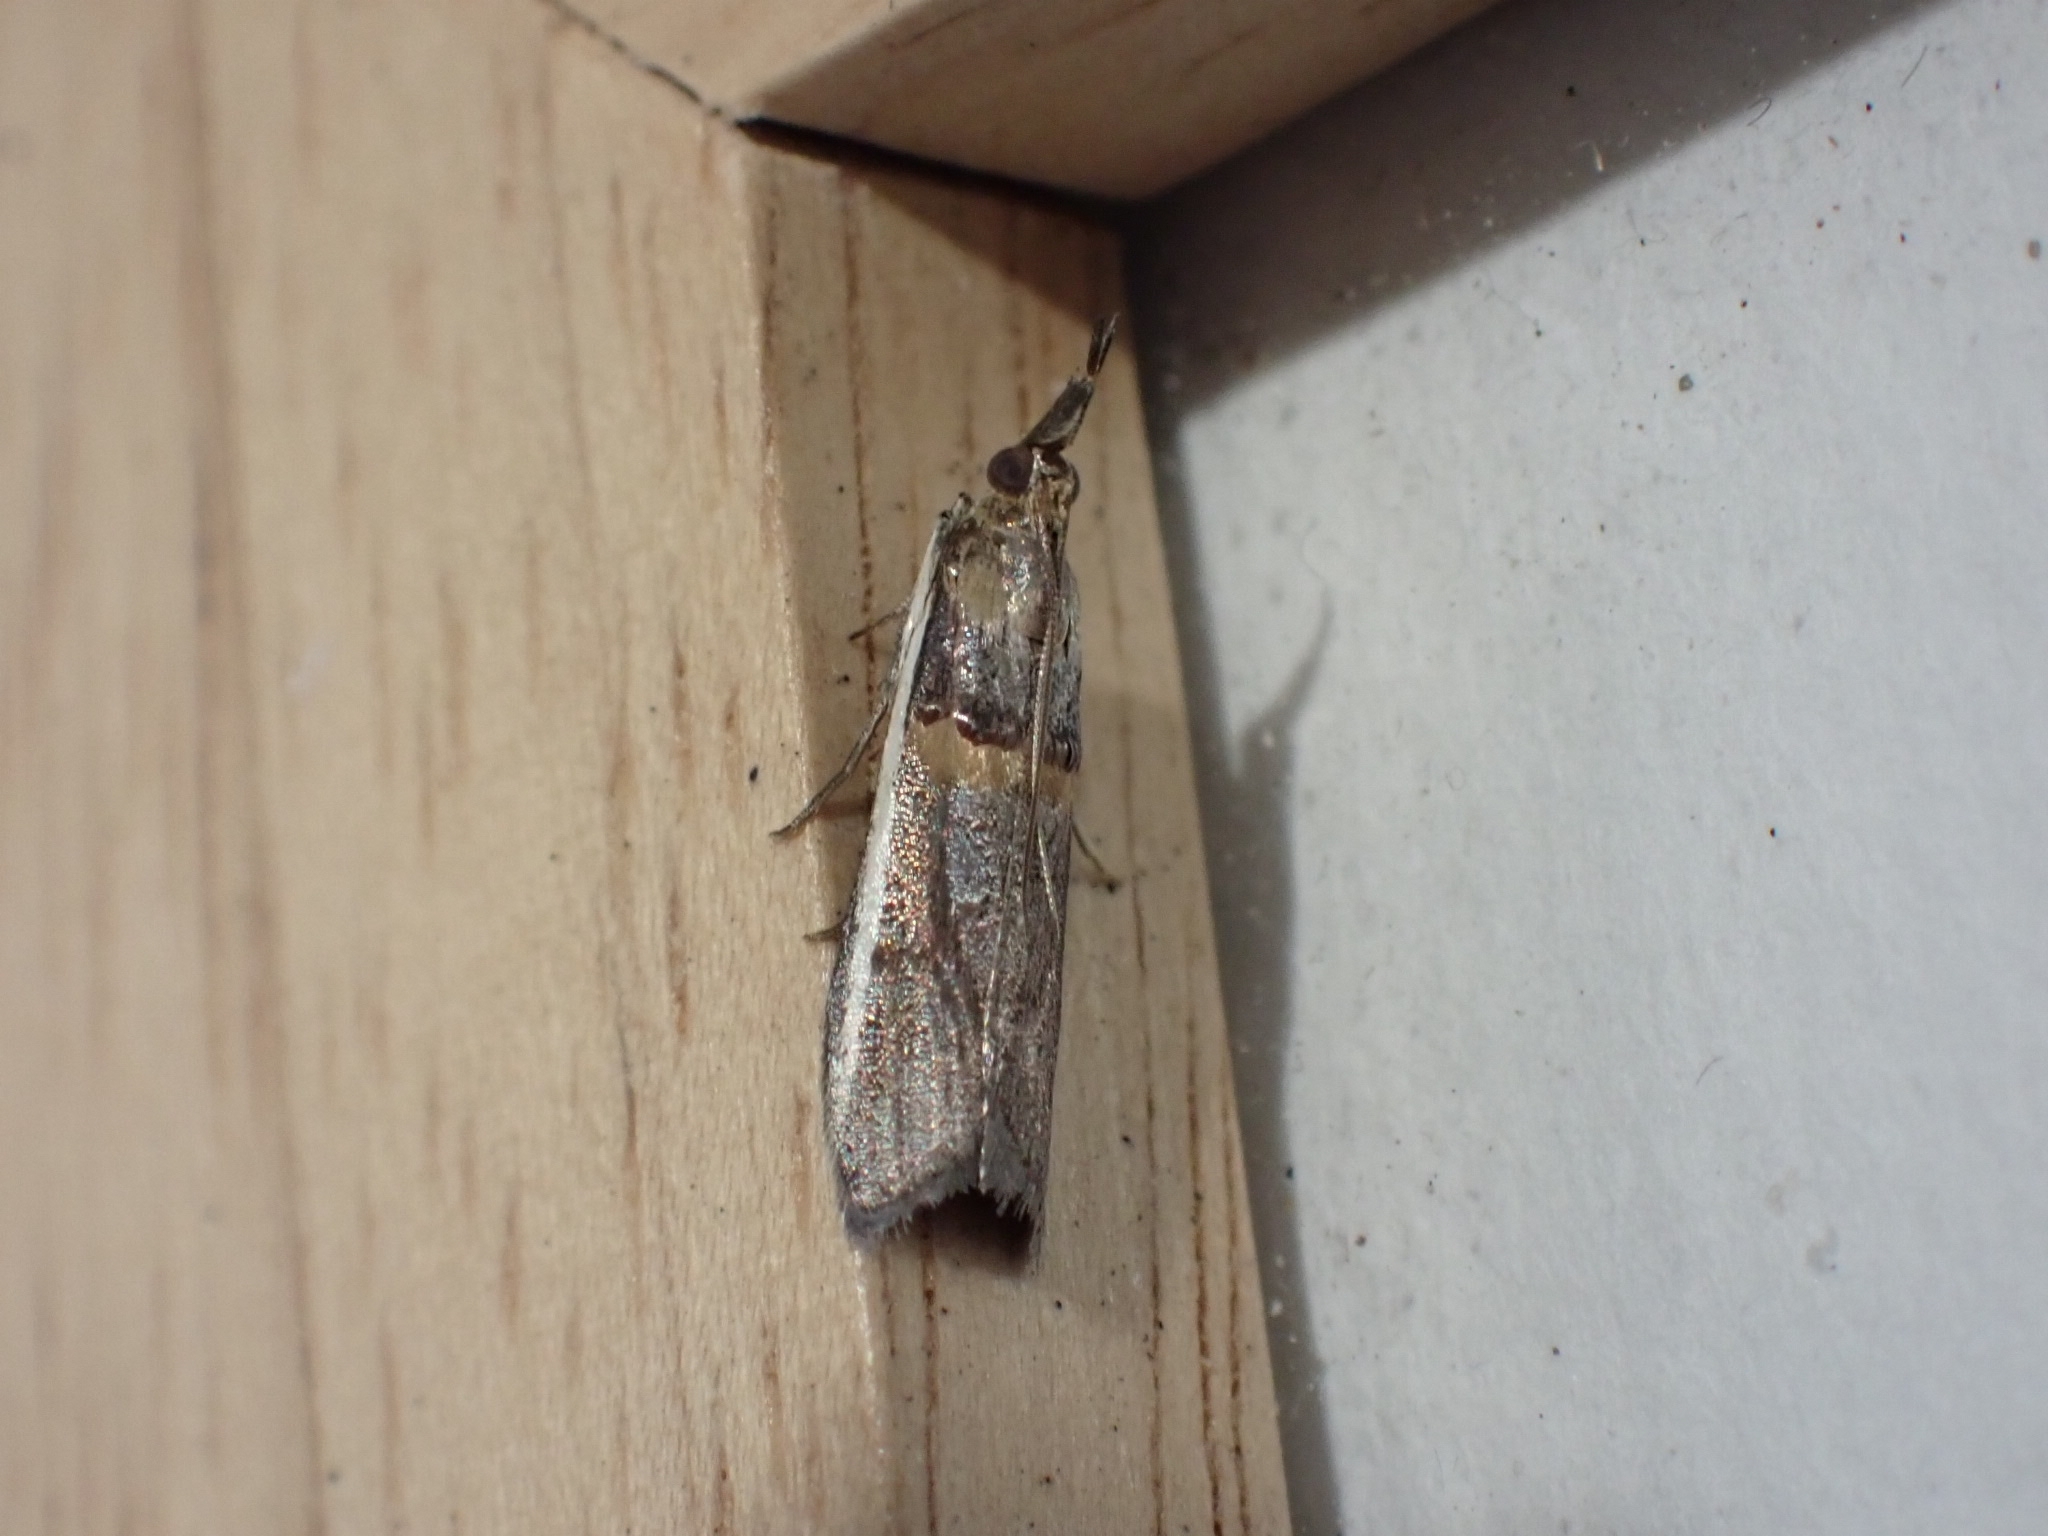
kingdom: Animalia
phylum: Arthropoda
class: Insecta
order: Lepidoptera
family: Pyralidae
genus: Etiella
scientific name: Etiella zinckenella
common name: Gold-banded etiella moth
